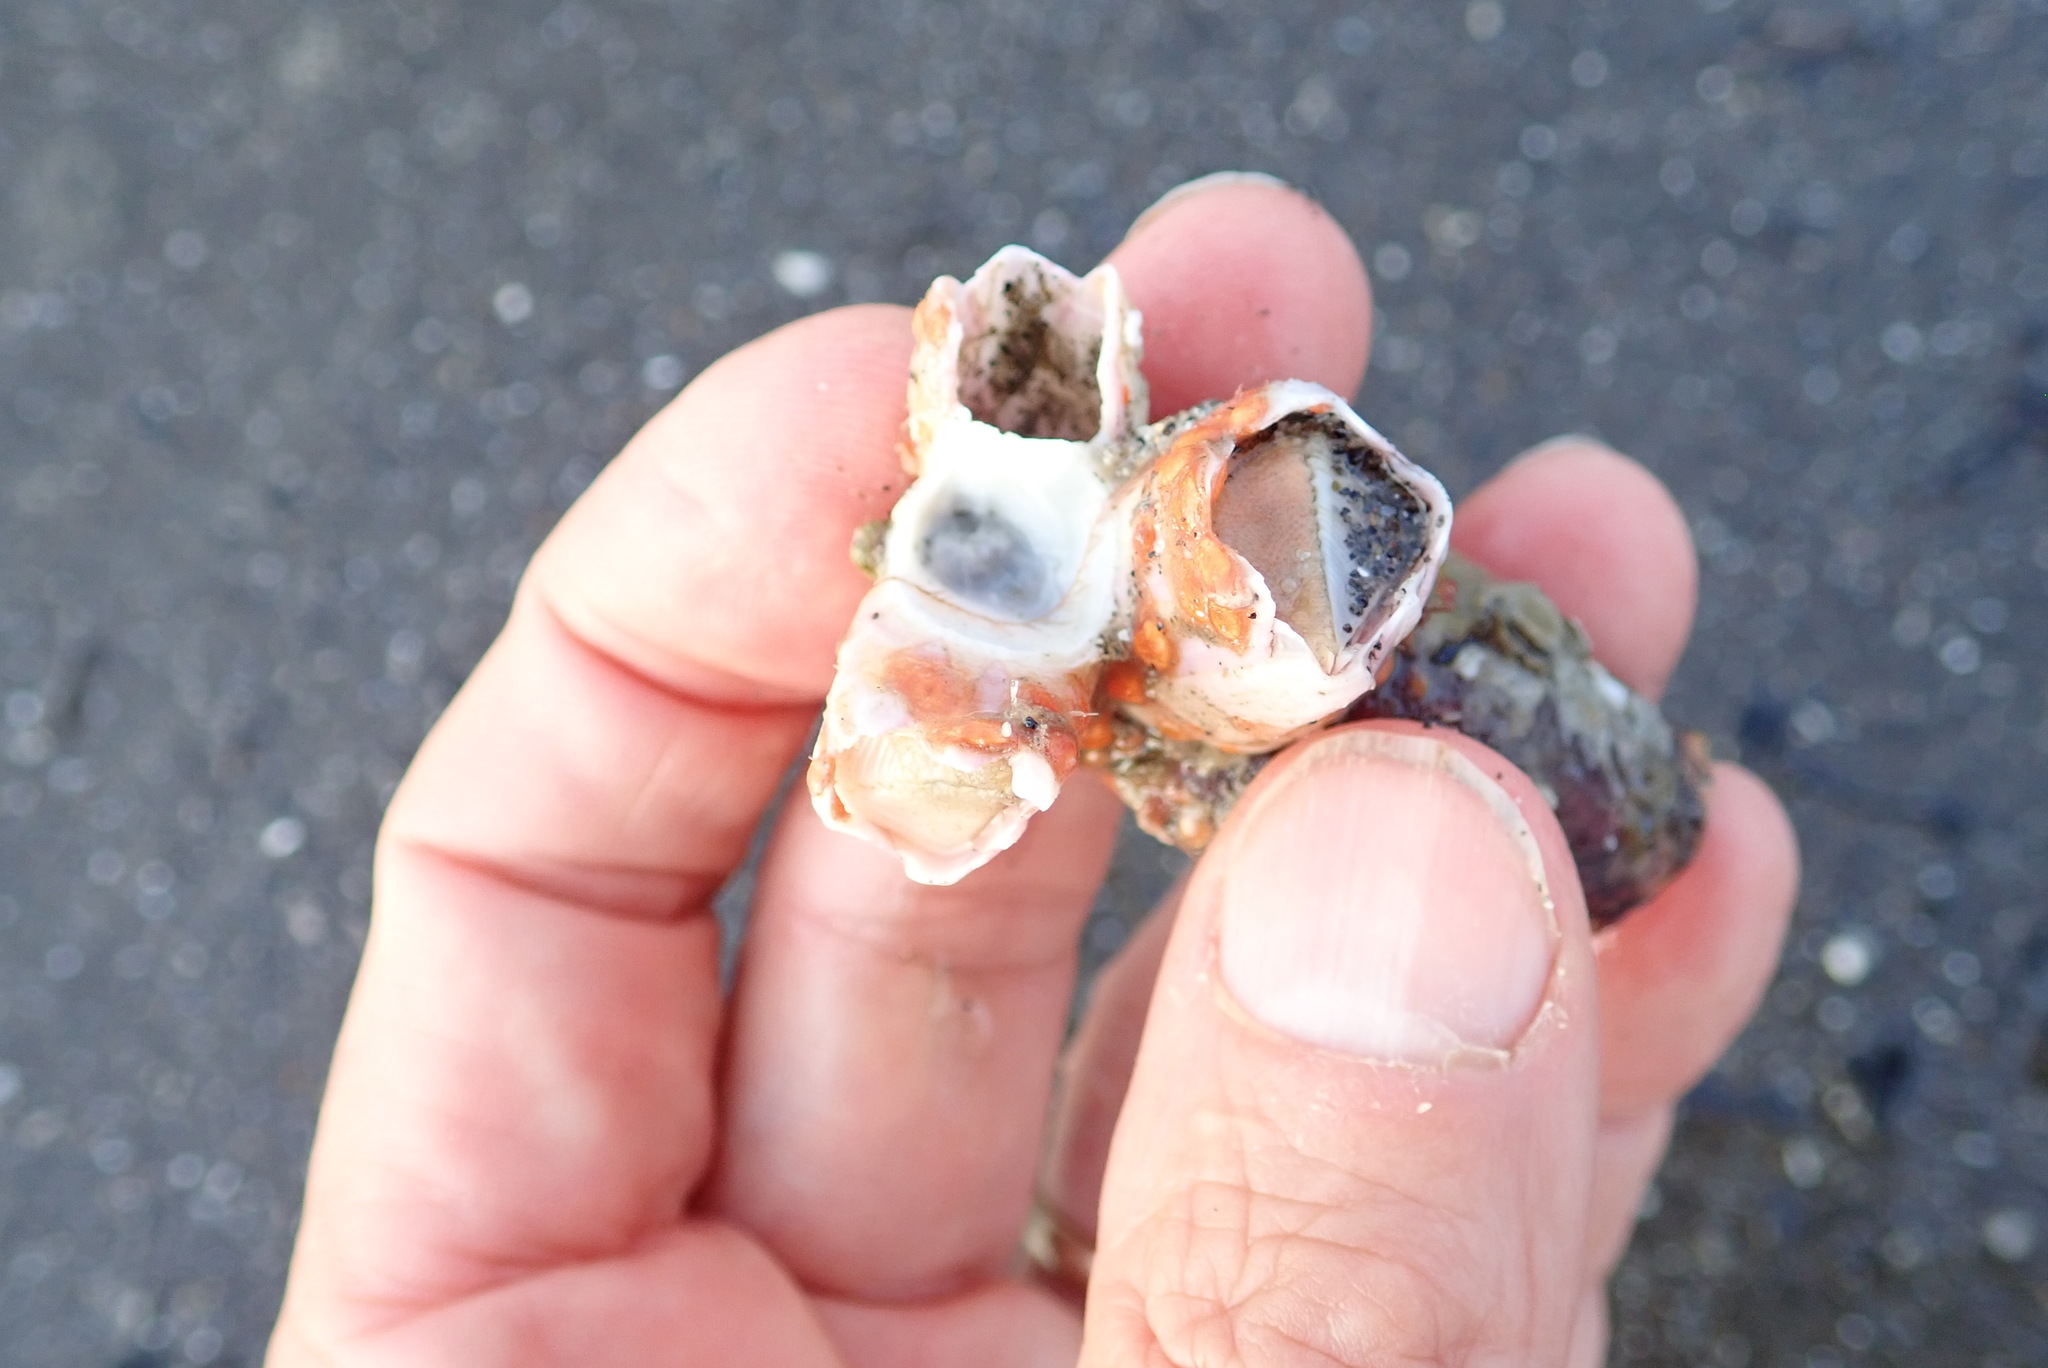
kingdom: Animalia
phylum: Arthropoda
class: Maxillopoda
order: Sessilia
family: Balanidae
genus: Notomegabalanus
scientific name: Notomegabalanus decorus
